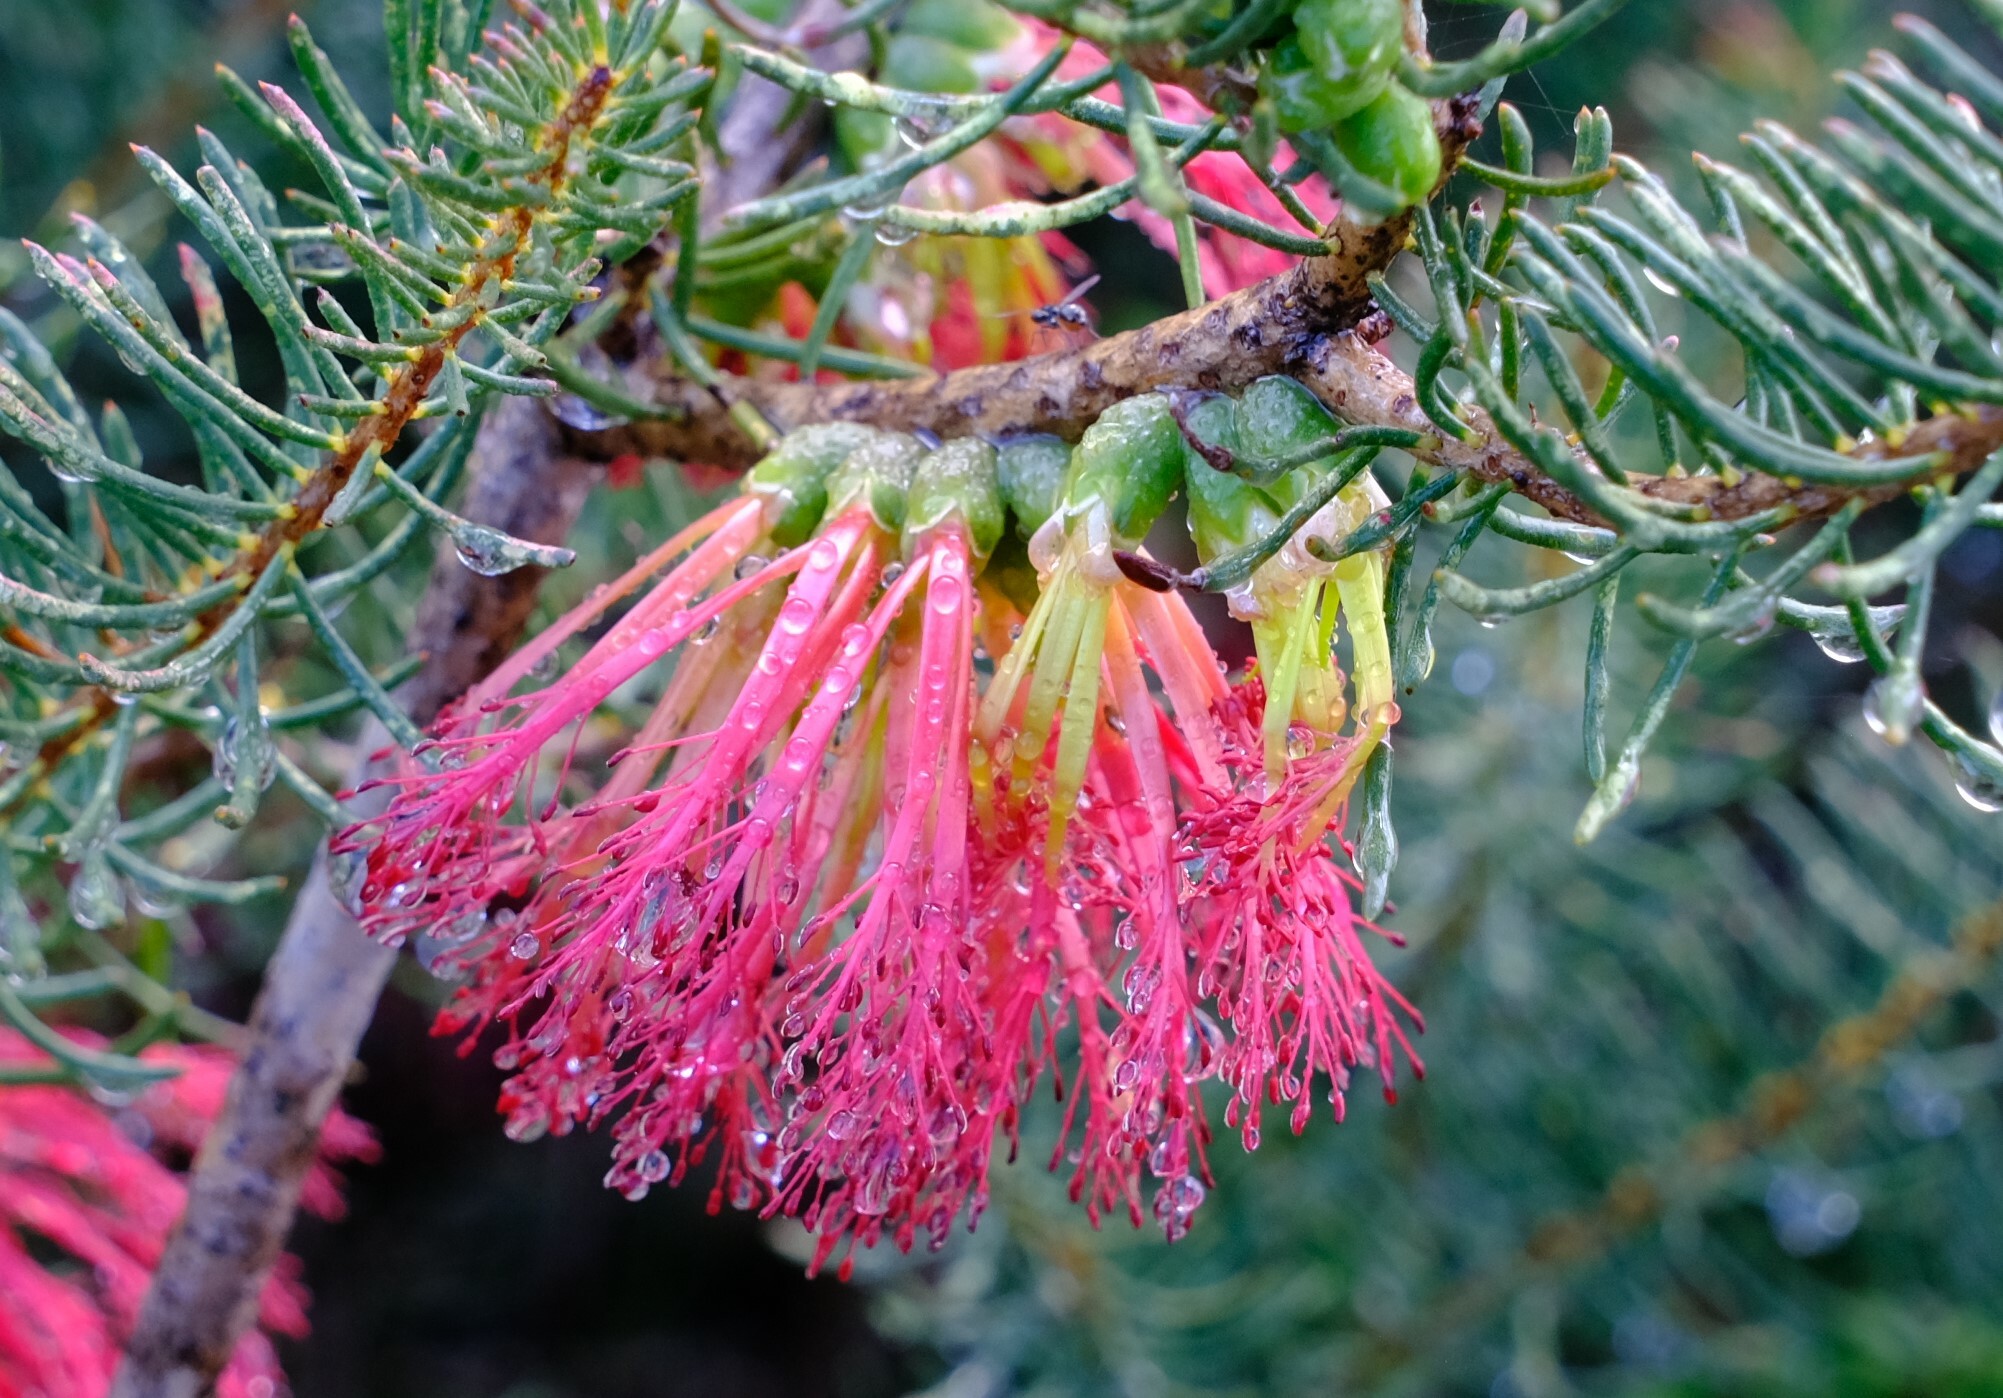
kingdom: Plantae
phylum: Tracheophyta
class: Magnoliopsida
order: Myrtales
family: Myrtaceae
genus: Melaleuca
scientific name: Melaleuca quadrifida
